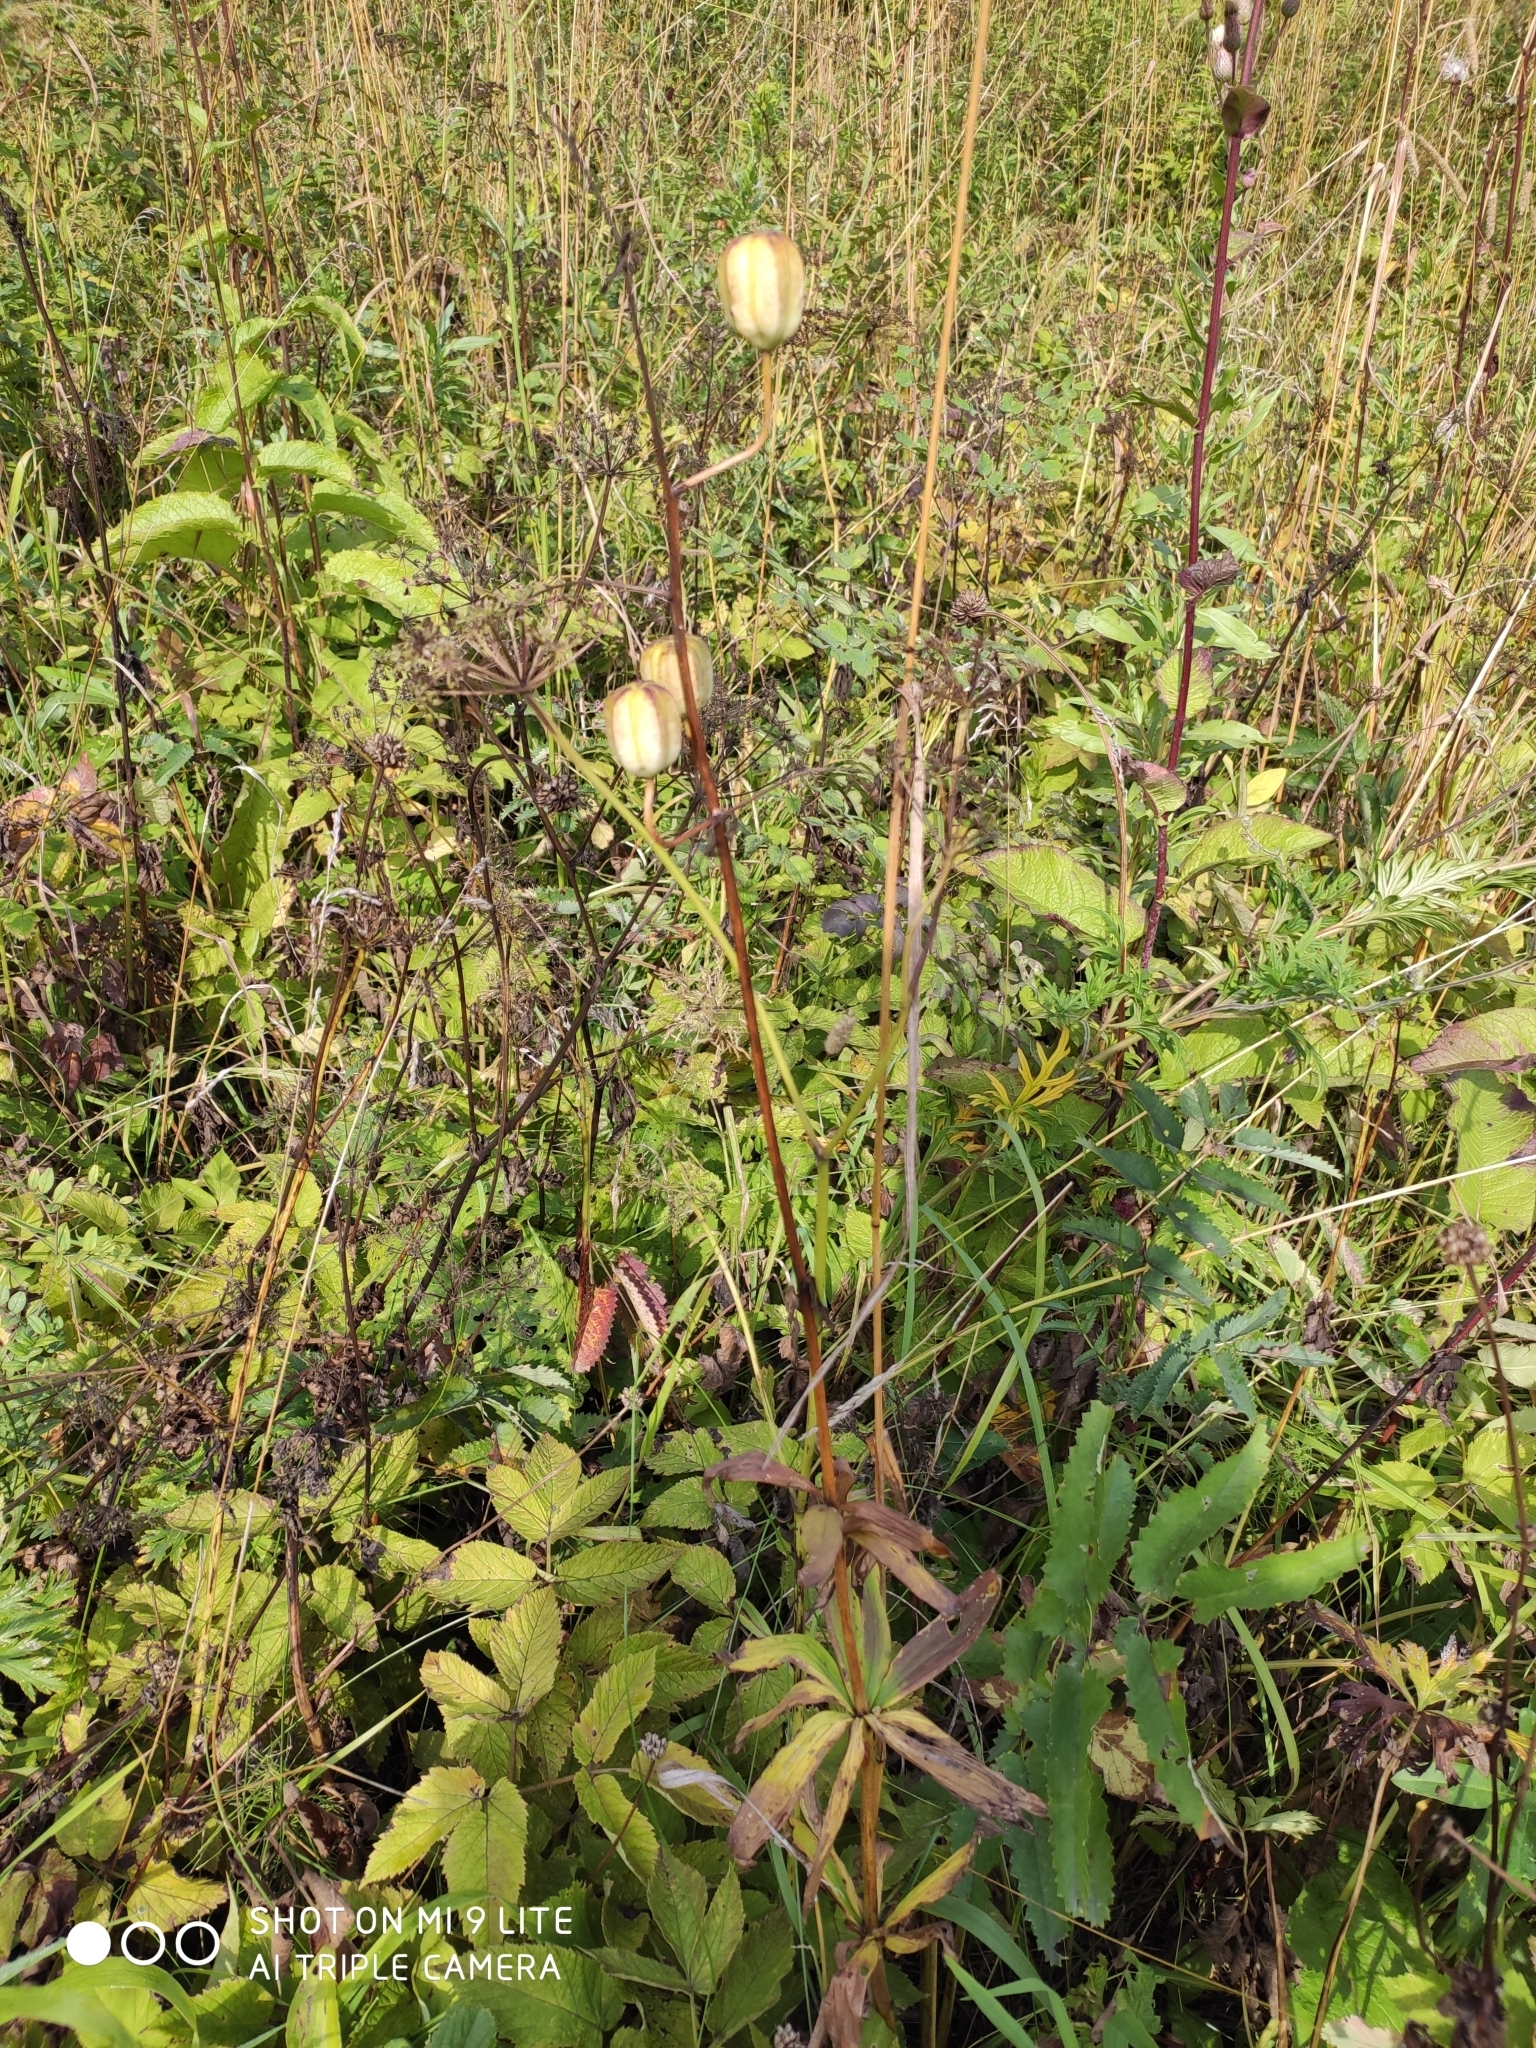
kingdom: Plantae
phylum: Tracheophyta
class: Liliopsida
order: Liliales
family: Liliaceae
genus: Lilium
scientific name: Lilium martagon
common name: Martagon lily
